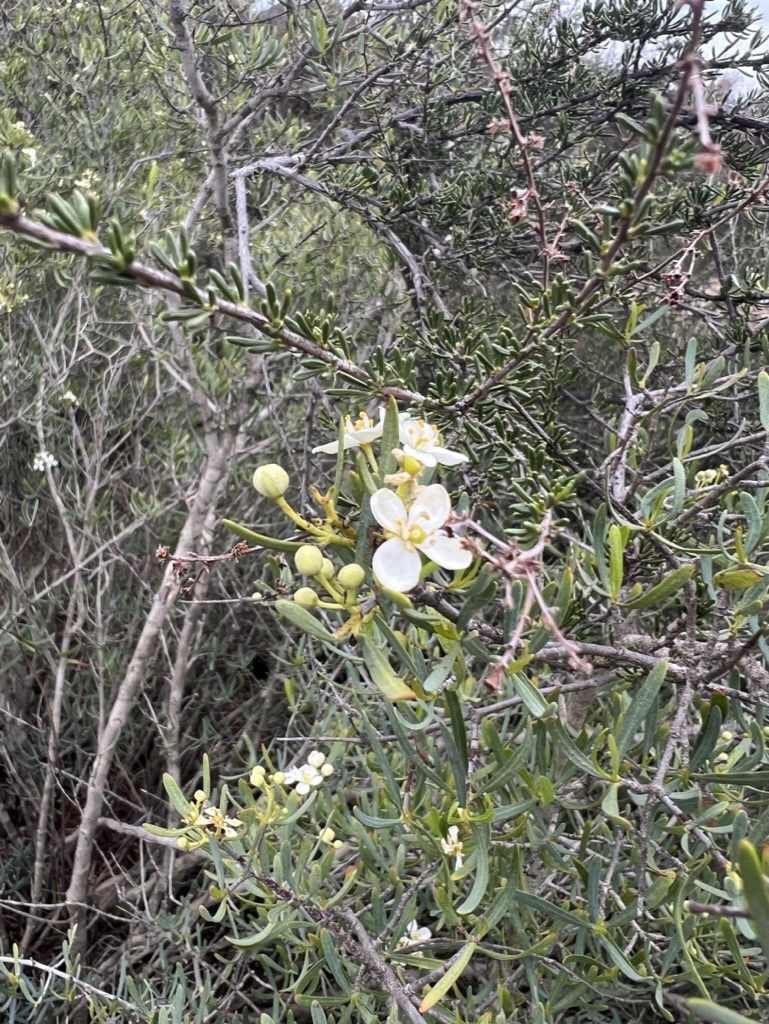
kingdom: Plantae
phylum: Tracheophyta
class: Magnoliopsida
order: Sapindales
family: Rutaceae
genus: Cneoridium
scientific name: Cneoridium dumosum
